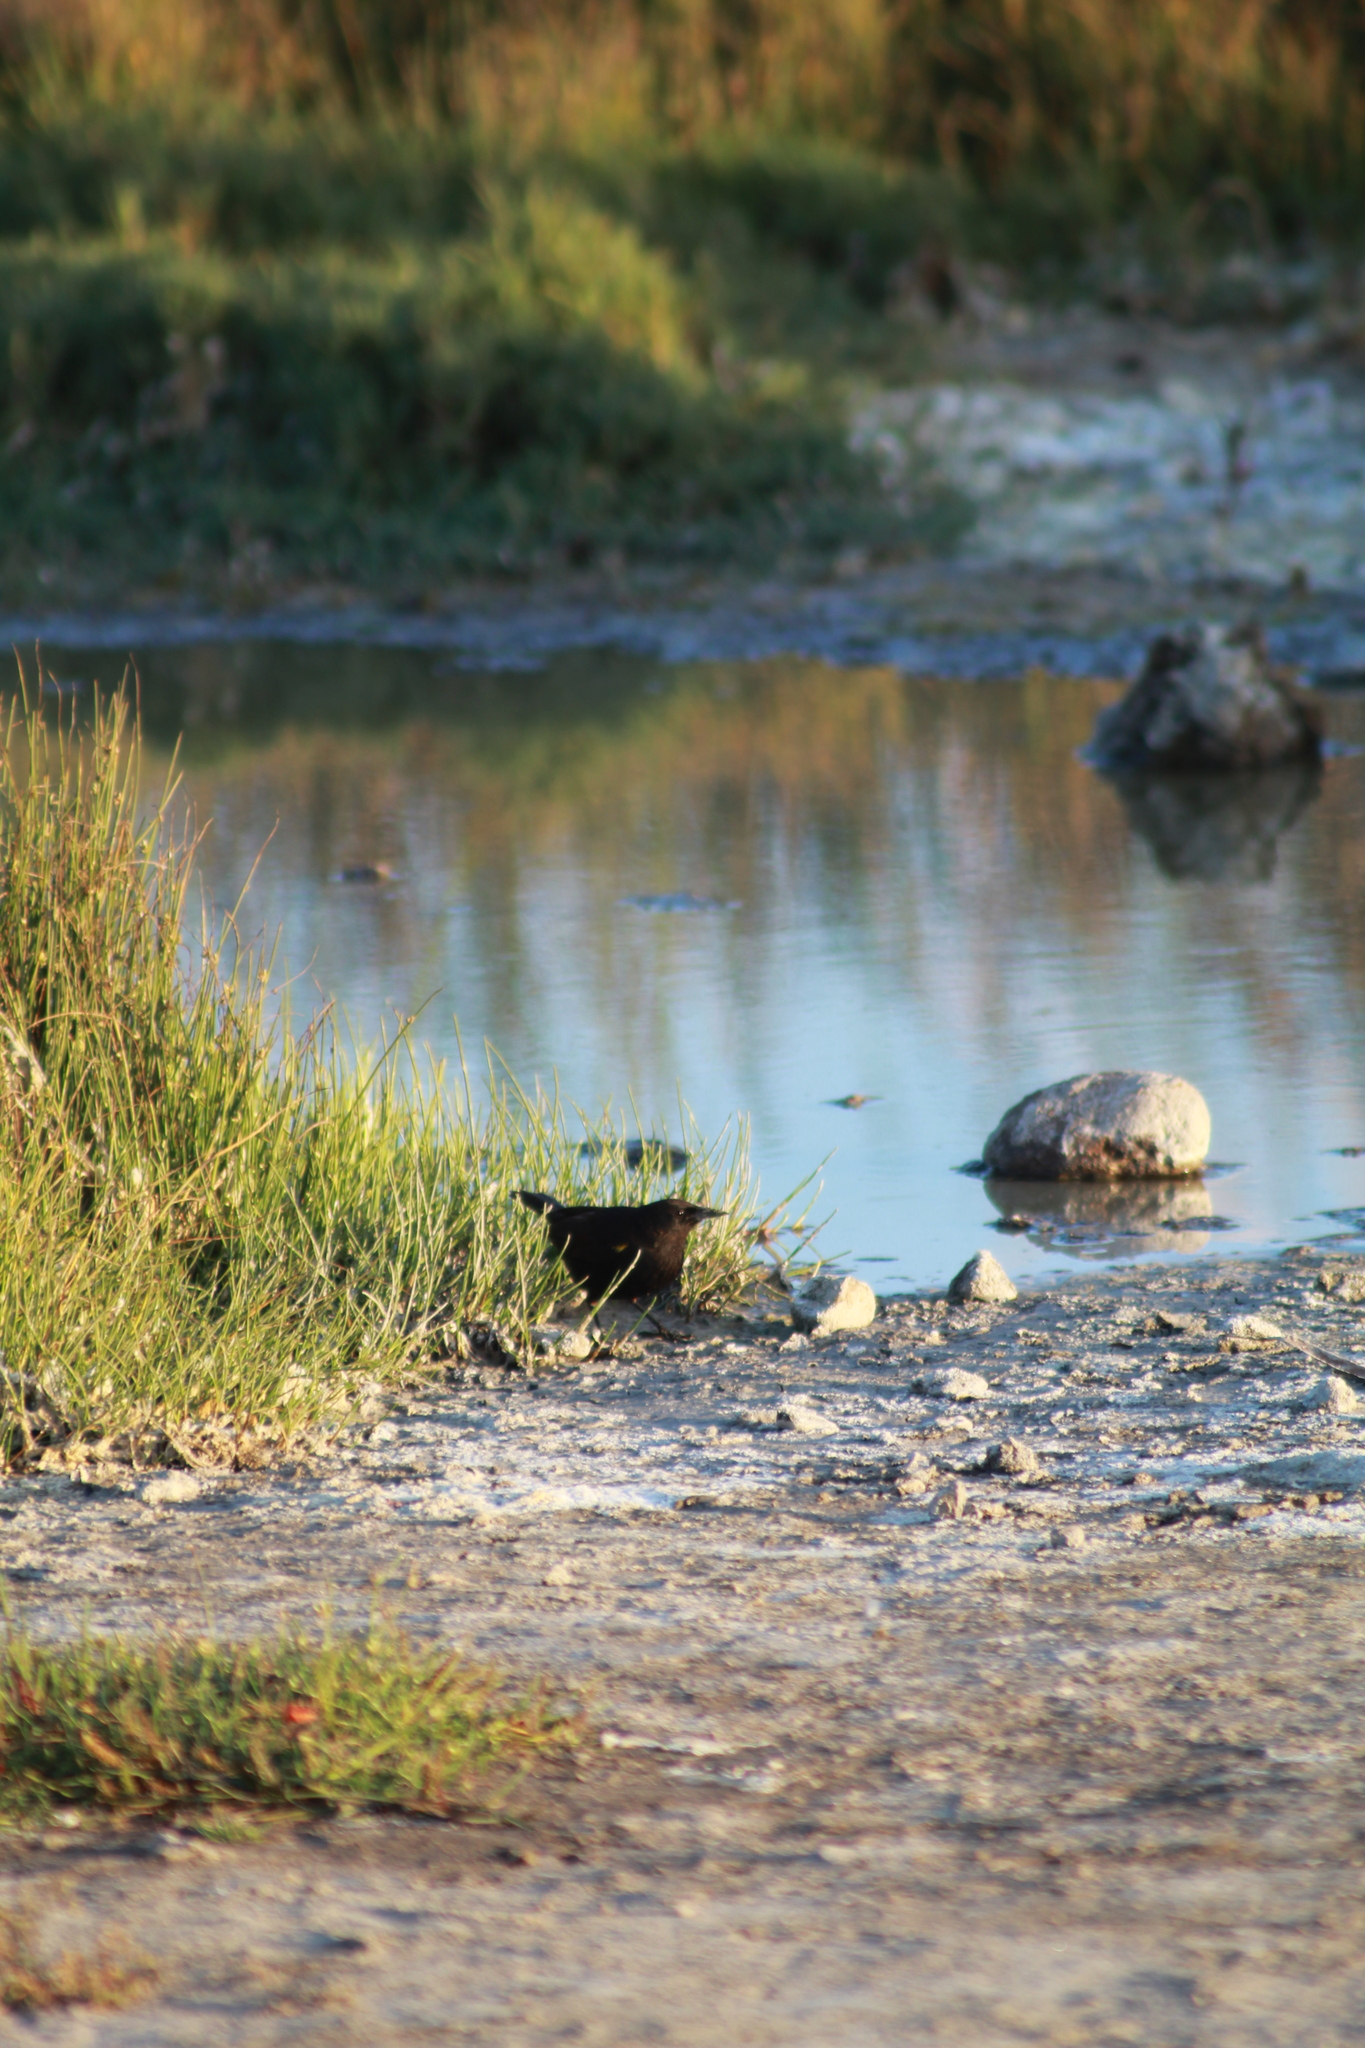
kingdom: Animalia
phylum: Chordata
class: Aves
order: Passeriformes
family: Icteridae
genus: Agelasticus
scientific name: Agelasticus thilius
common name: Yellow-winged blackbird
